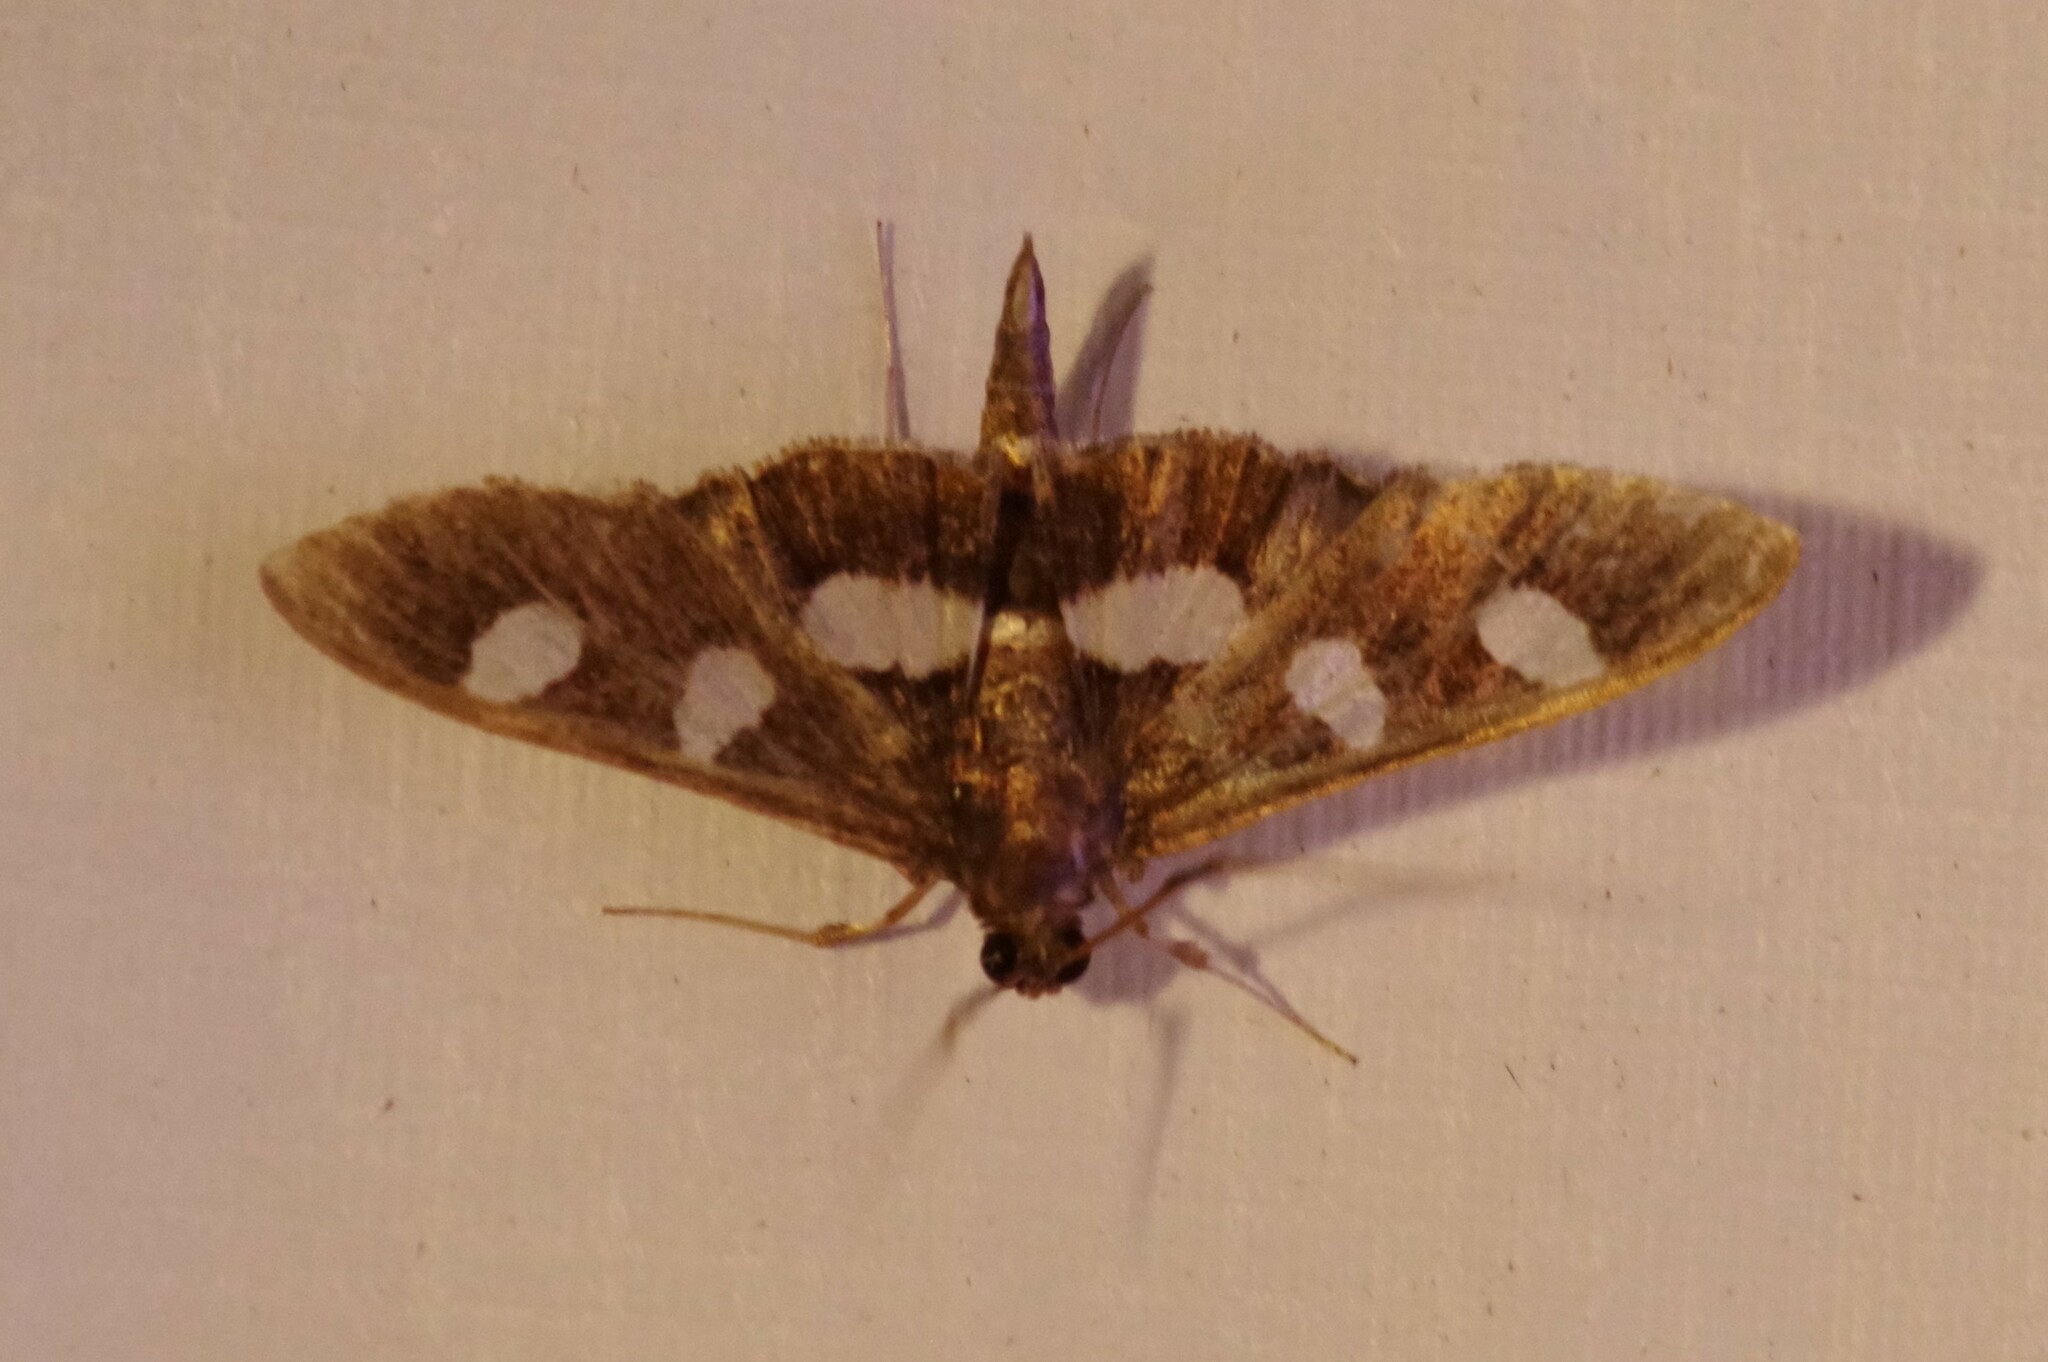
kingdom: Animalia
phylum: Arthropoda
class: Insecta
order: Lepidoptera
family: Crambidae
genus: Desmia
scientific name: Desmia
